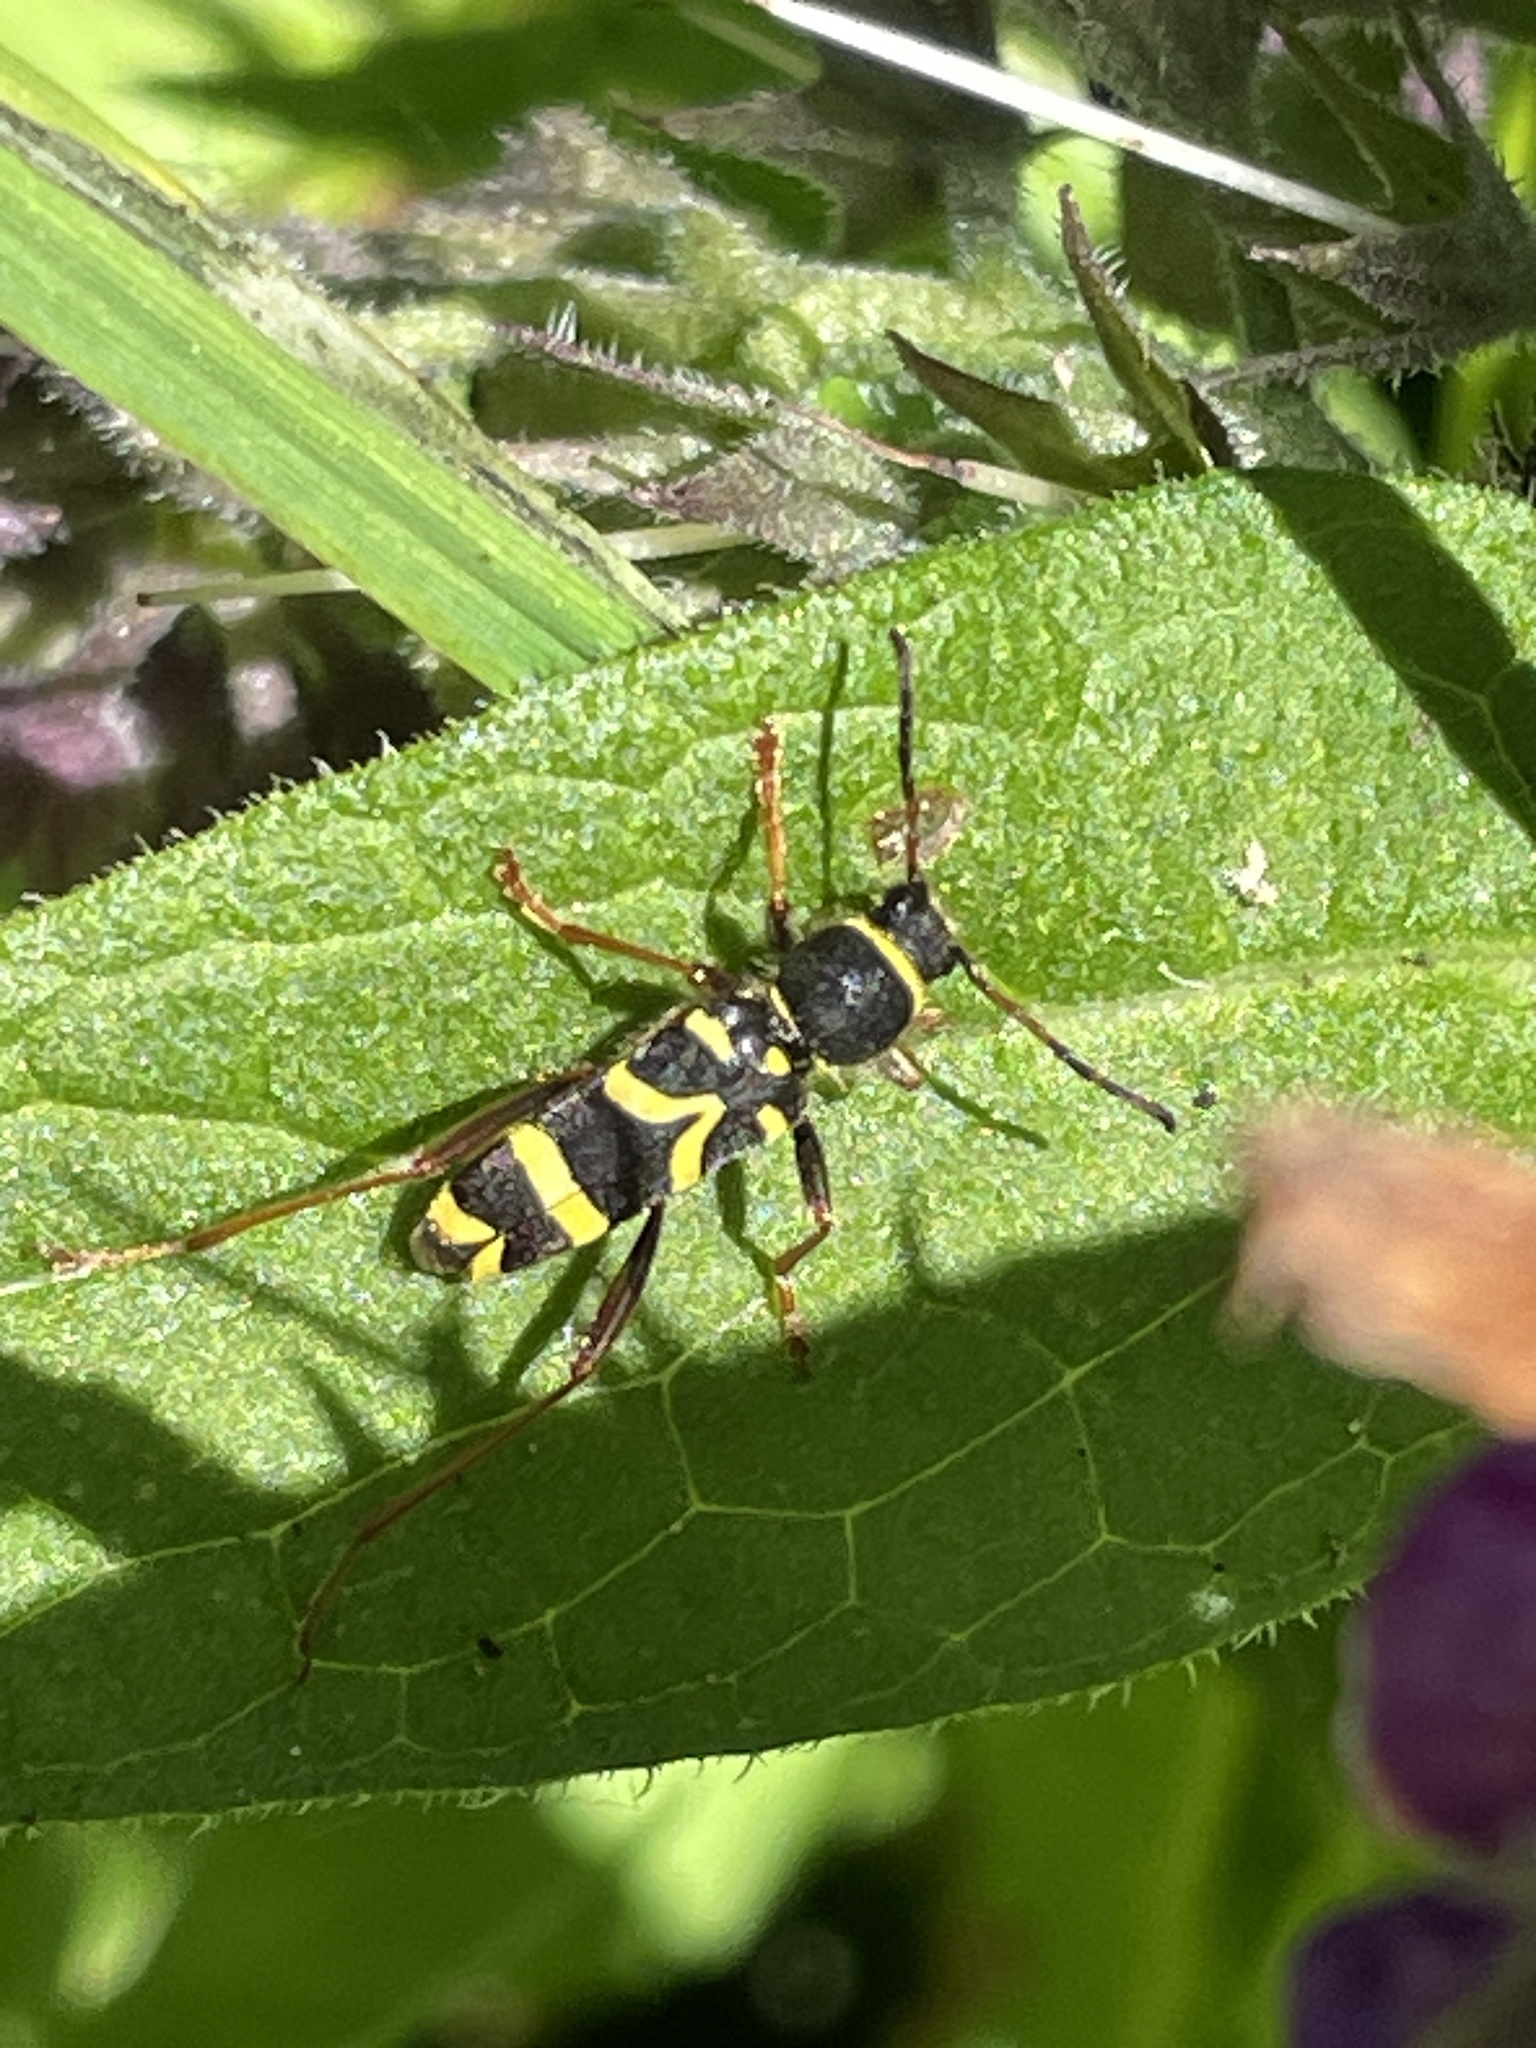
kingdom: Animalia
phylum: Arthropoda
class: Insecta
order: Coleoptera
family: Cerambycidae
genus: Clytus
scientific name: Clytus arietis
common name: Wasp beetle
